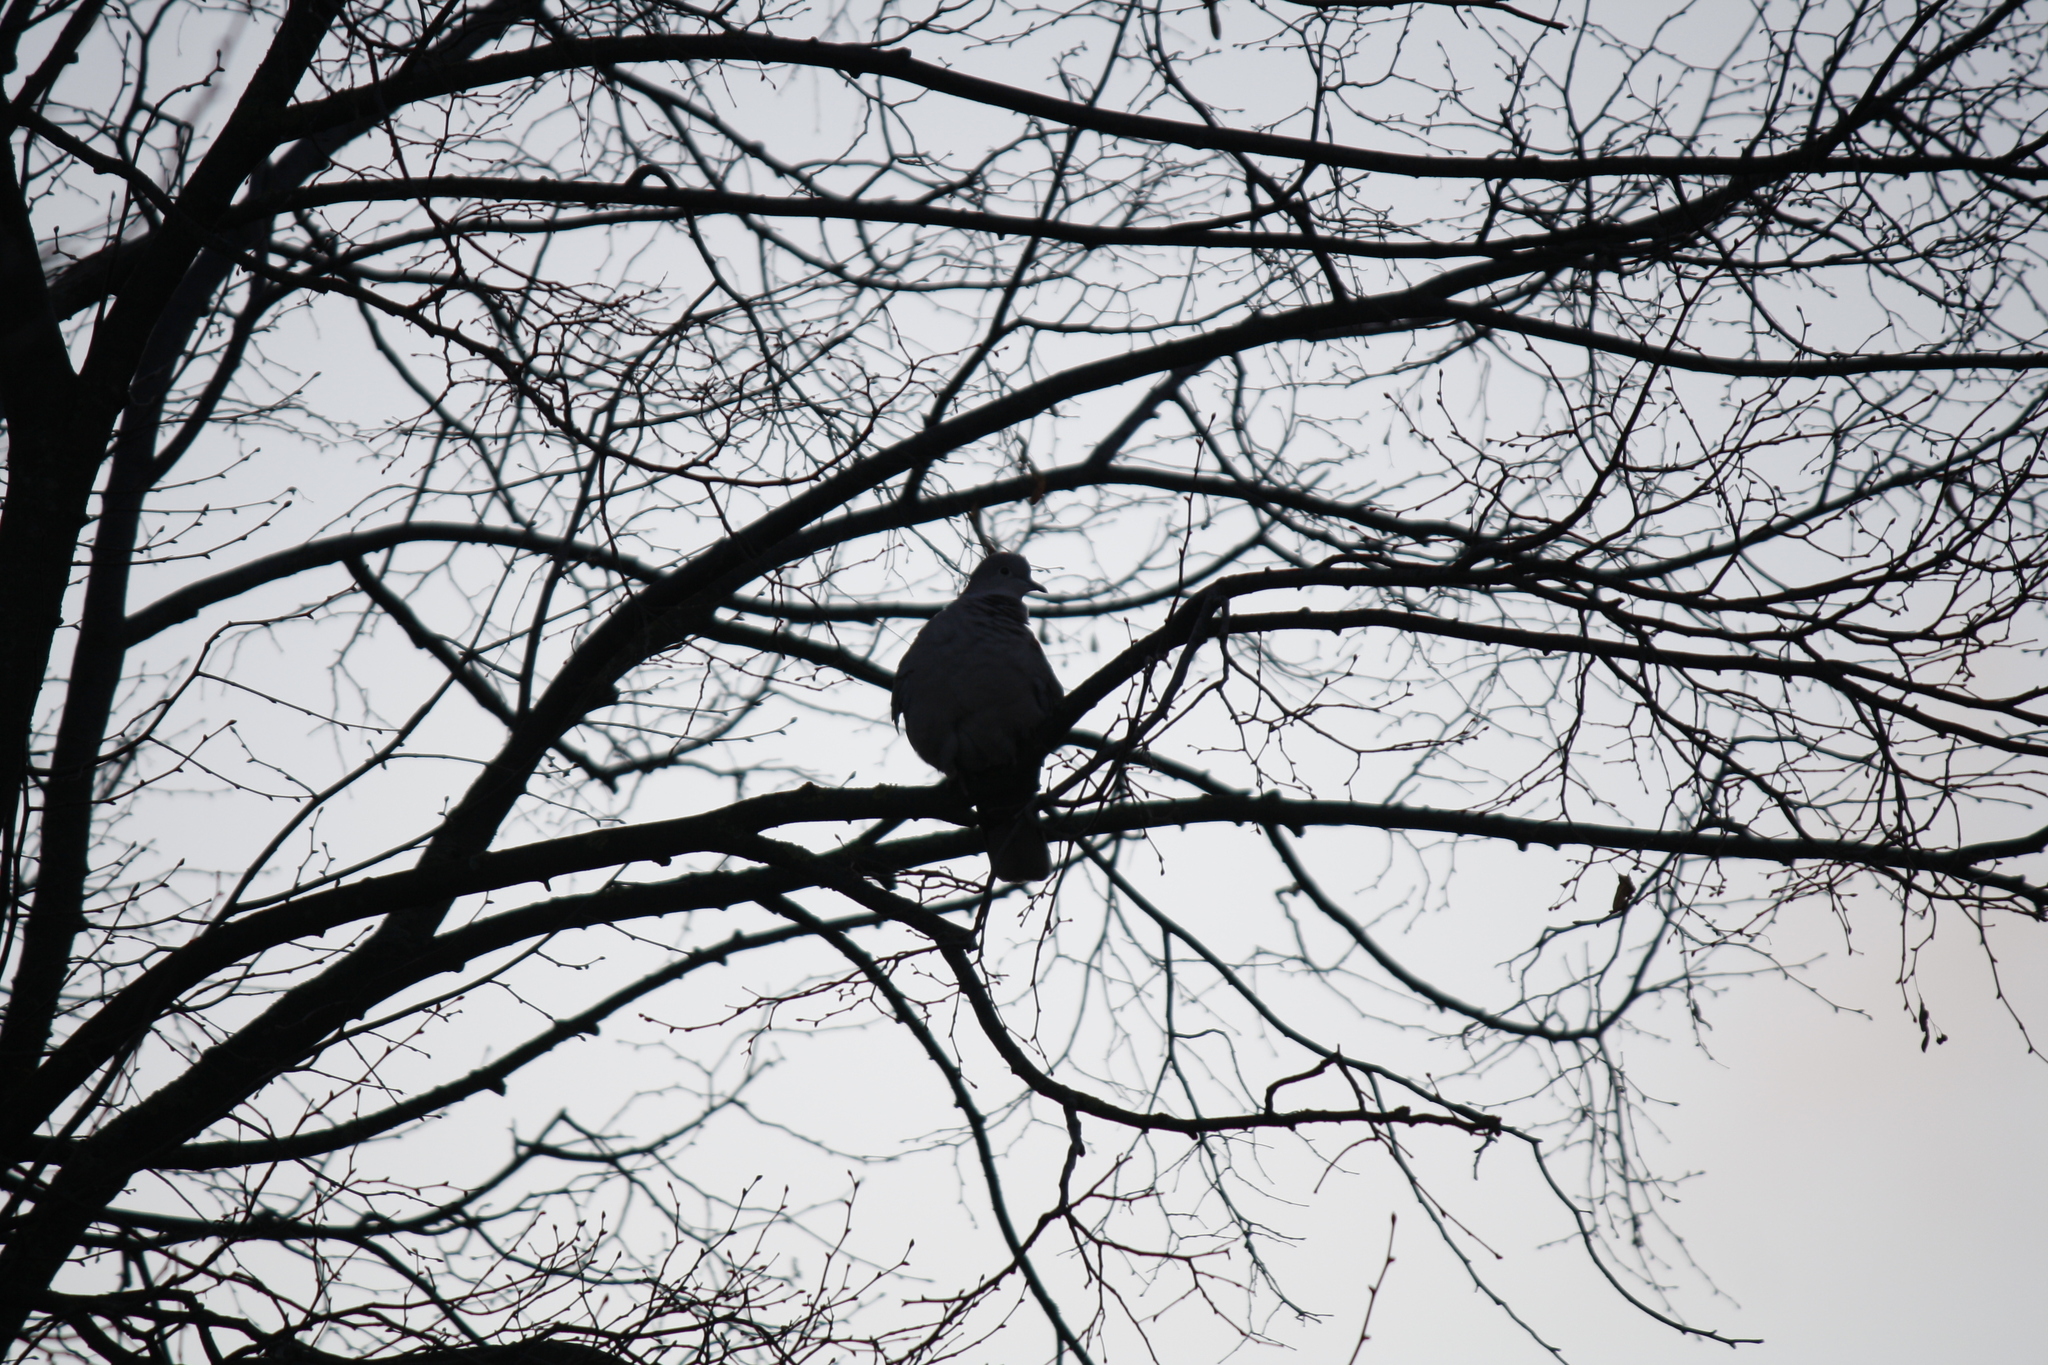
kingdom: Animalia
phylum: Chordata
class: Aves
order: Columbiformes
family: Columbidae
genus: Streptopelia
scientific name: Streptopelia decaocto
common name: Eurasian collared dove
